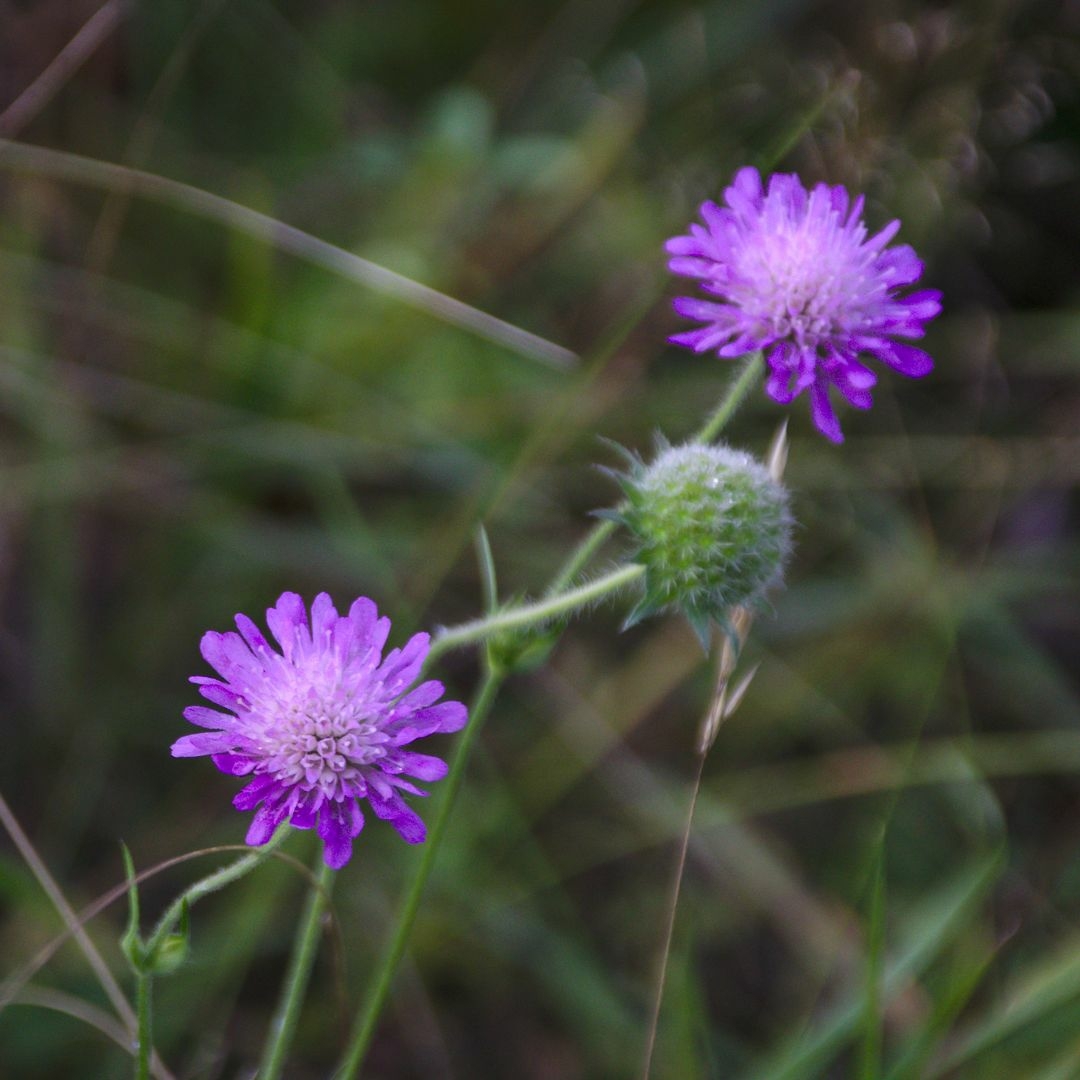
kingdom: Plantae
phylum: Tracheophyta
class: Magnoliopsida
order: Dipsacales
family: Caprifoliaceae
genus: Knautia
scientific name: Knautia arvensis
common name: Field scabiosa
